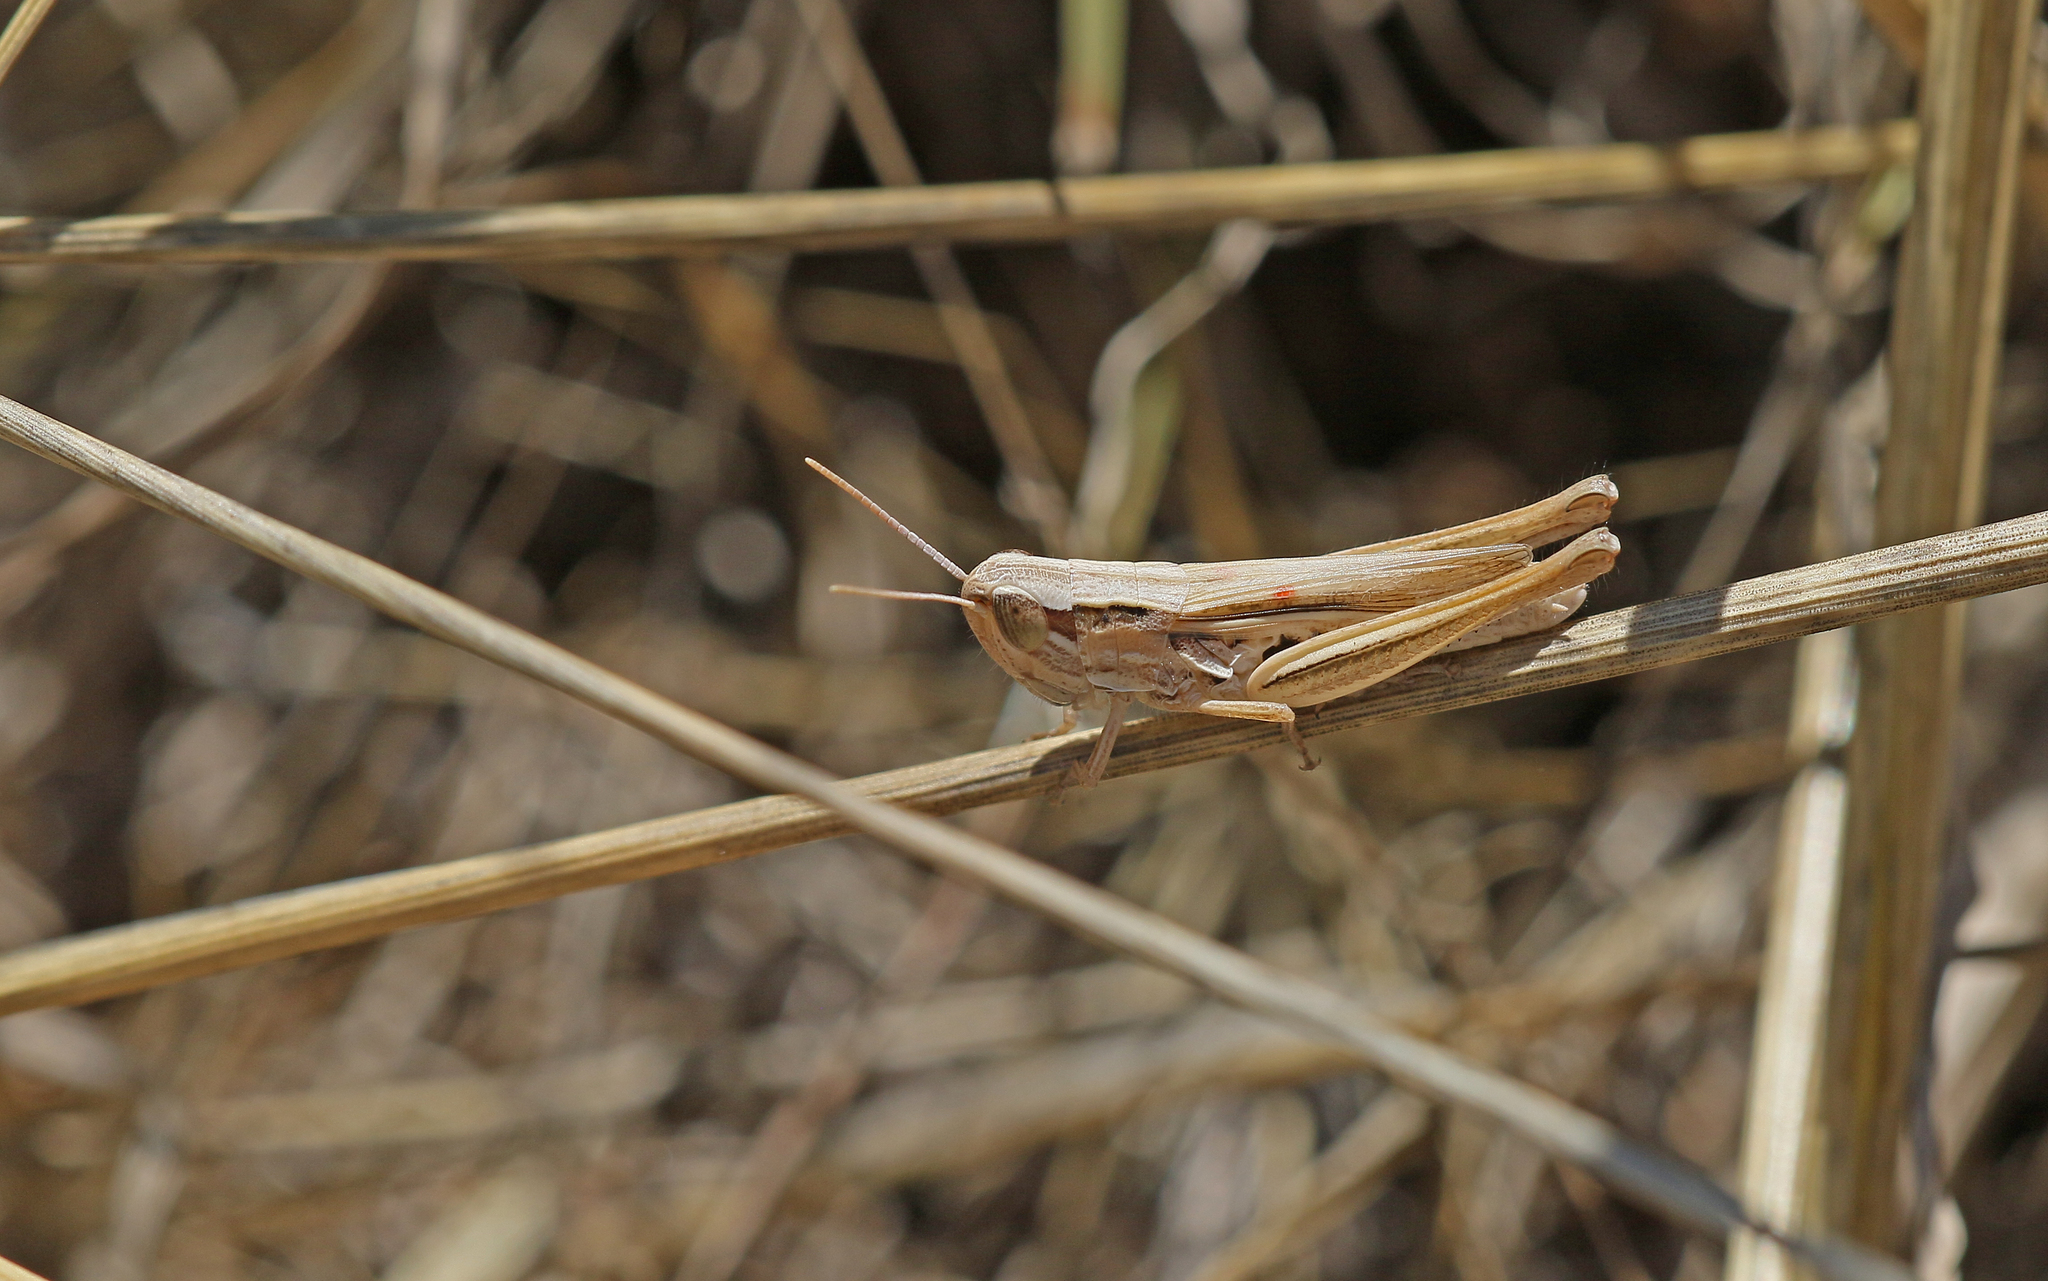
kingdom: Animalia
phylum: Arthropoda
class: Insecta
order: Orthoptera
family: Acrididae
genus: Euchorthippus
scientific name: Euchorthippus elegantulus
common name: Elegant straw grasshopper
